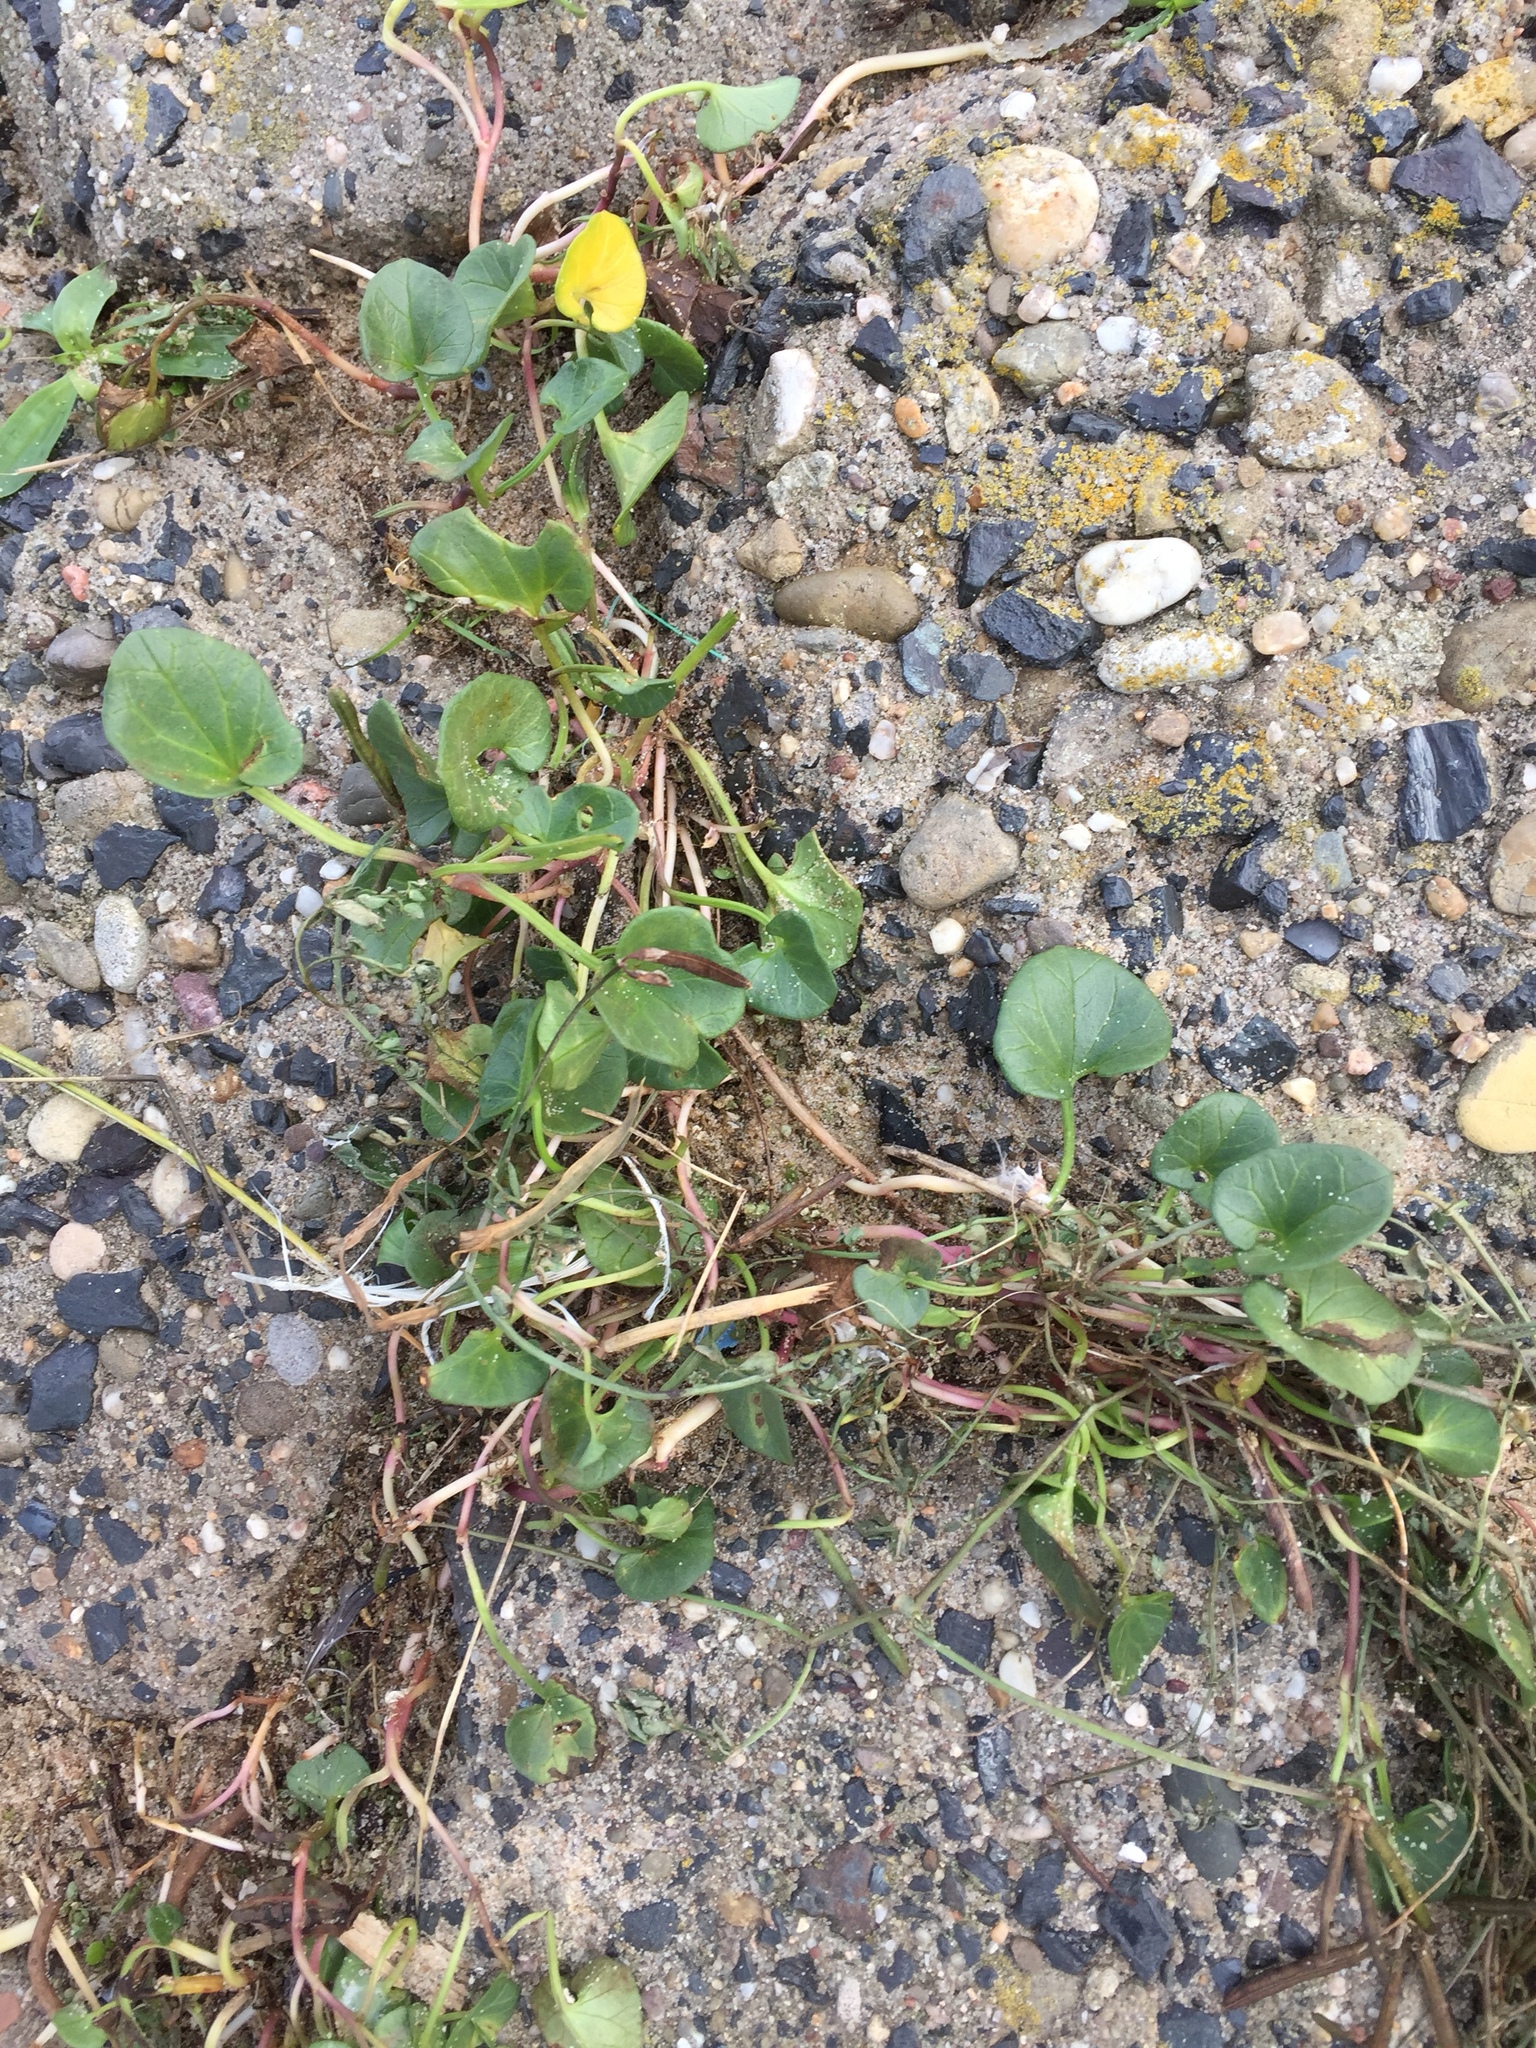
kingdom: Plantae
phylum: Tracheophyta
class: Magnoliopsida
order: Solanales
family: Convolvulaceae
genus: Calystegia
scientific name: Calystegia soldanella
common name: Sea bindweed
